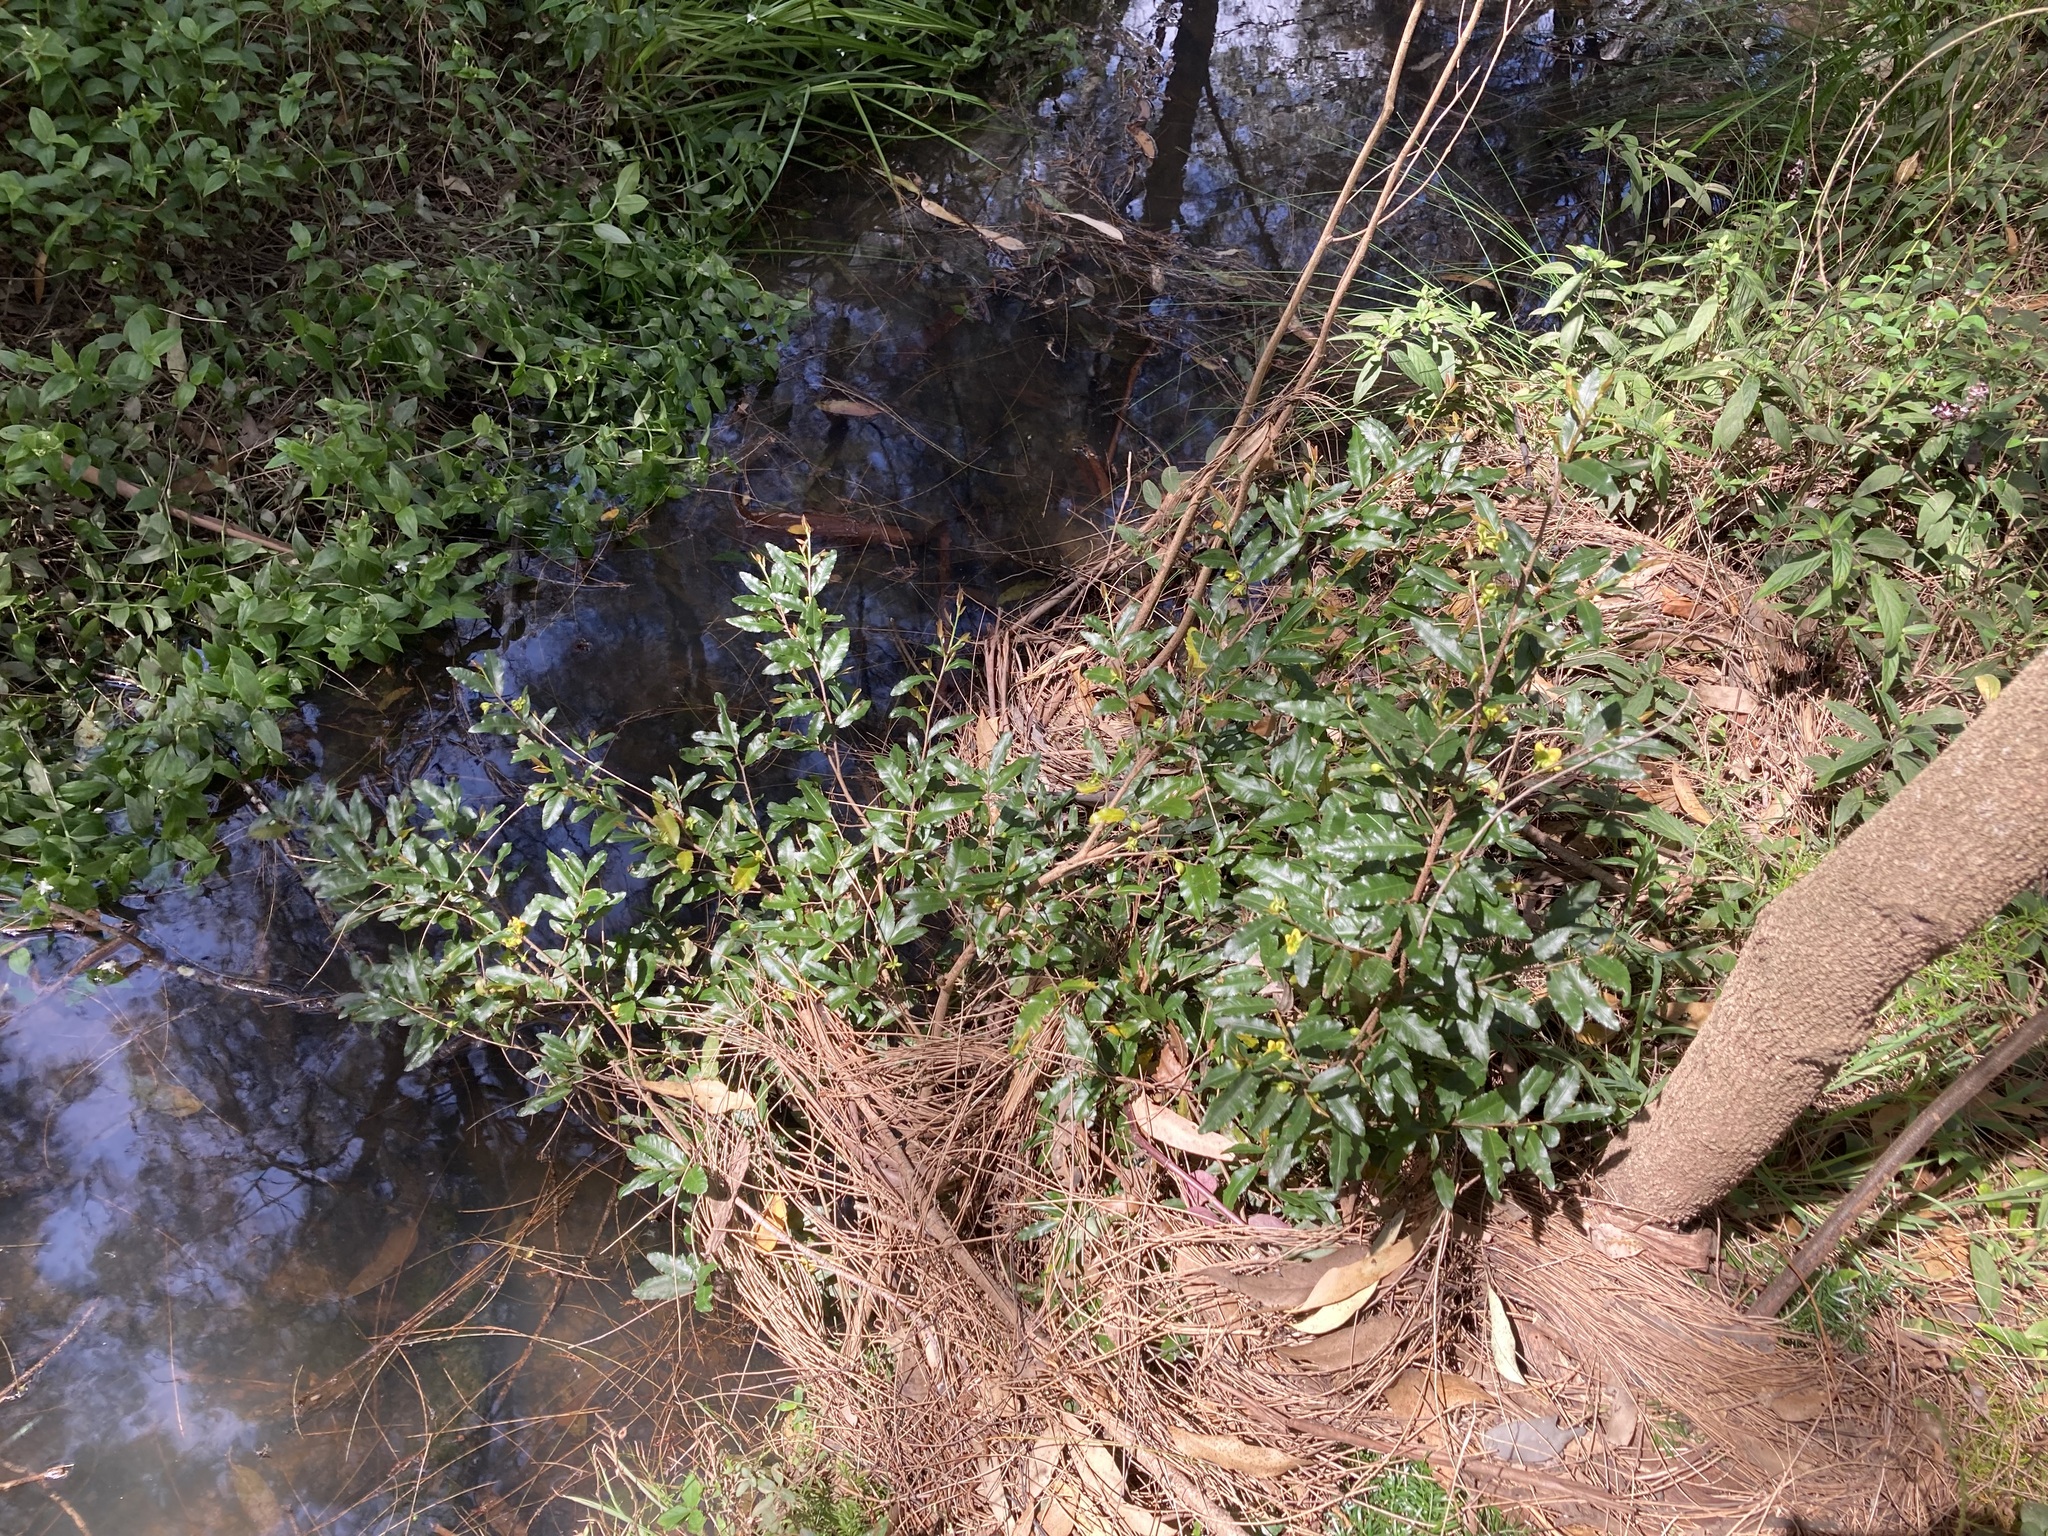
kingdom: Plantae
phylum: Tracheophyta
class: Magnoliopsida
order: Malpighiales
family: Ochnaceae
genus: Ochna
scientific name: Ochna serrulata
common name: Mickey mouse plant
